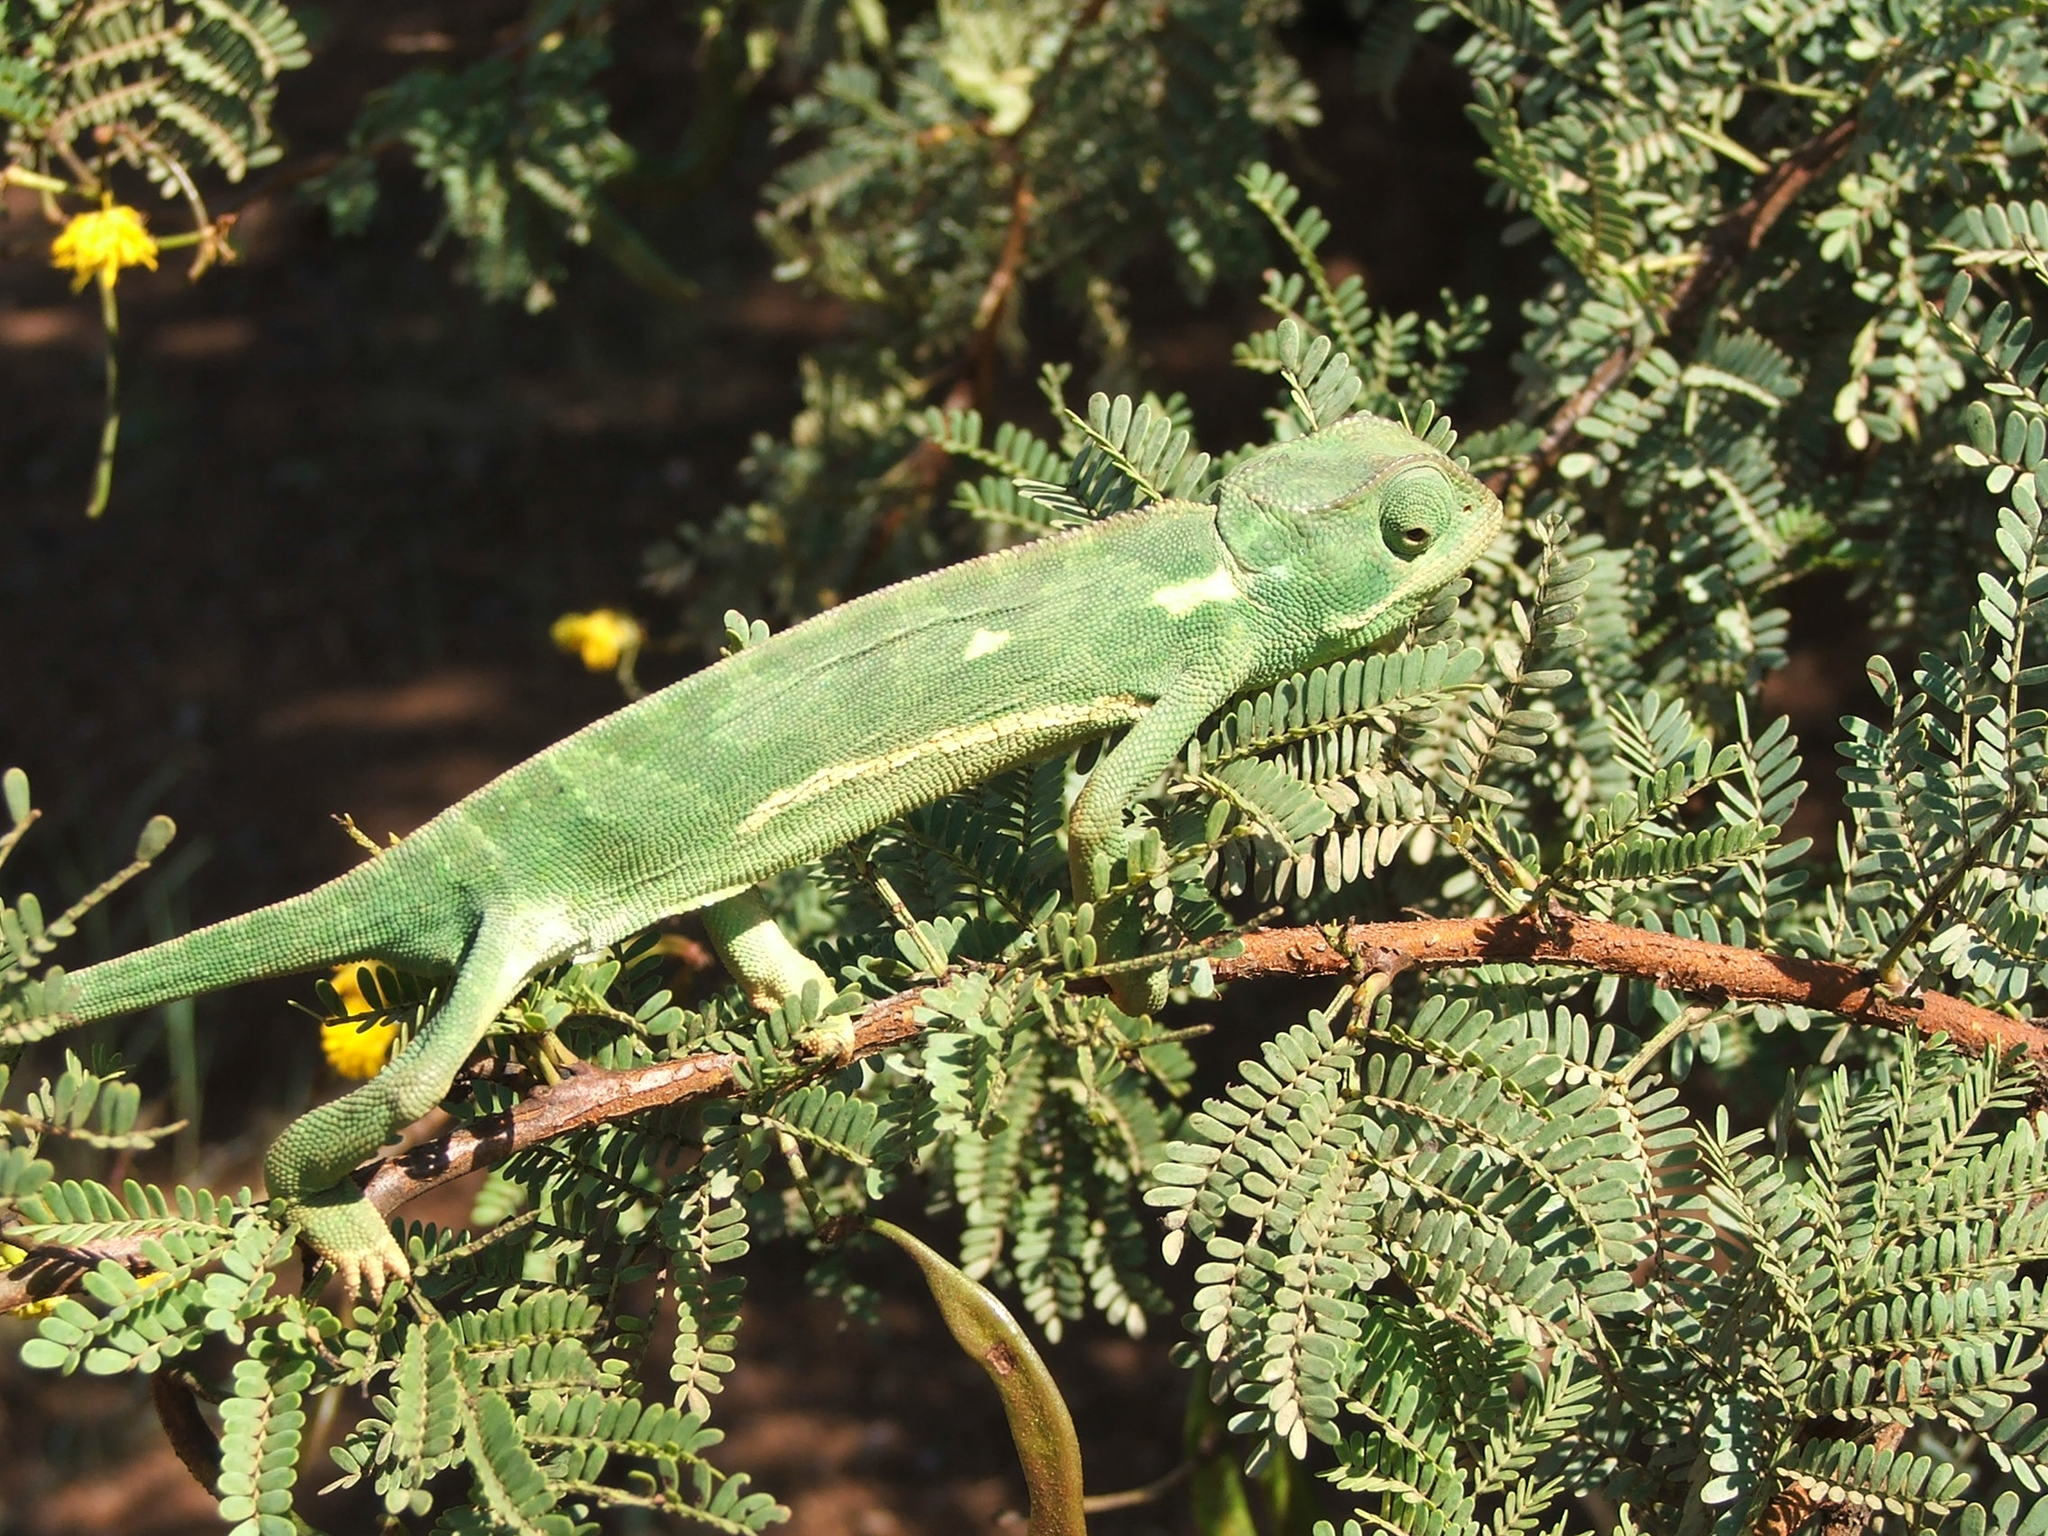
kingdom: Animalia
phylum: Chordata
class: Squamata
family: Chamaeleonidae
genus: Chamaeleo
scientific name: Chamaeleo dilepis
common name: Flapneck chameleon
